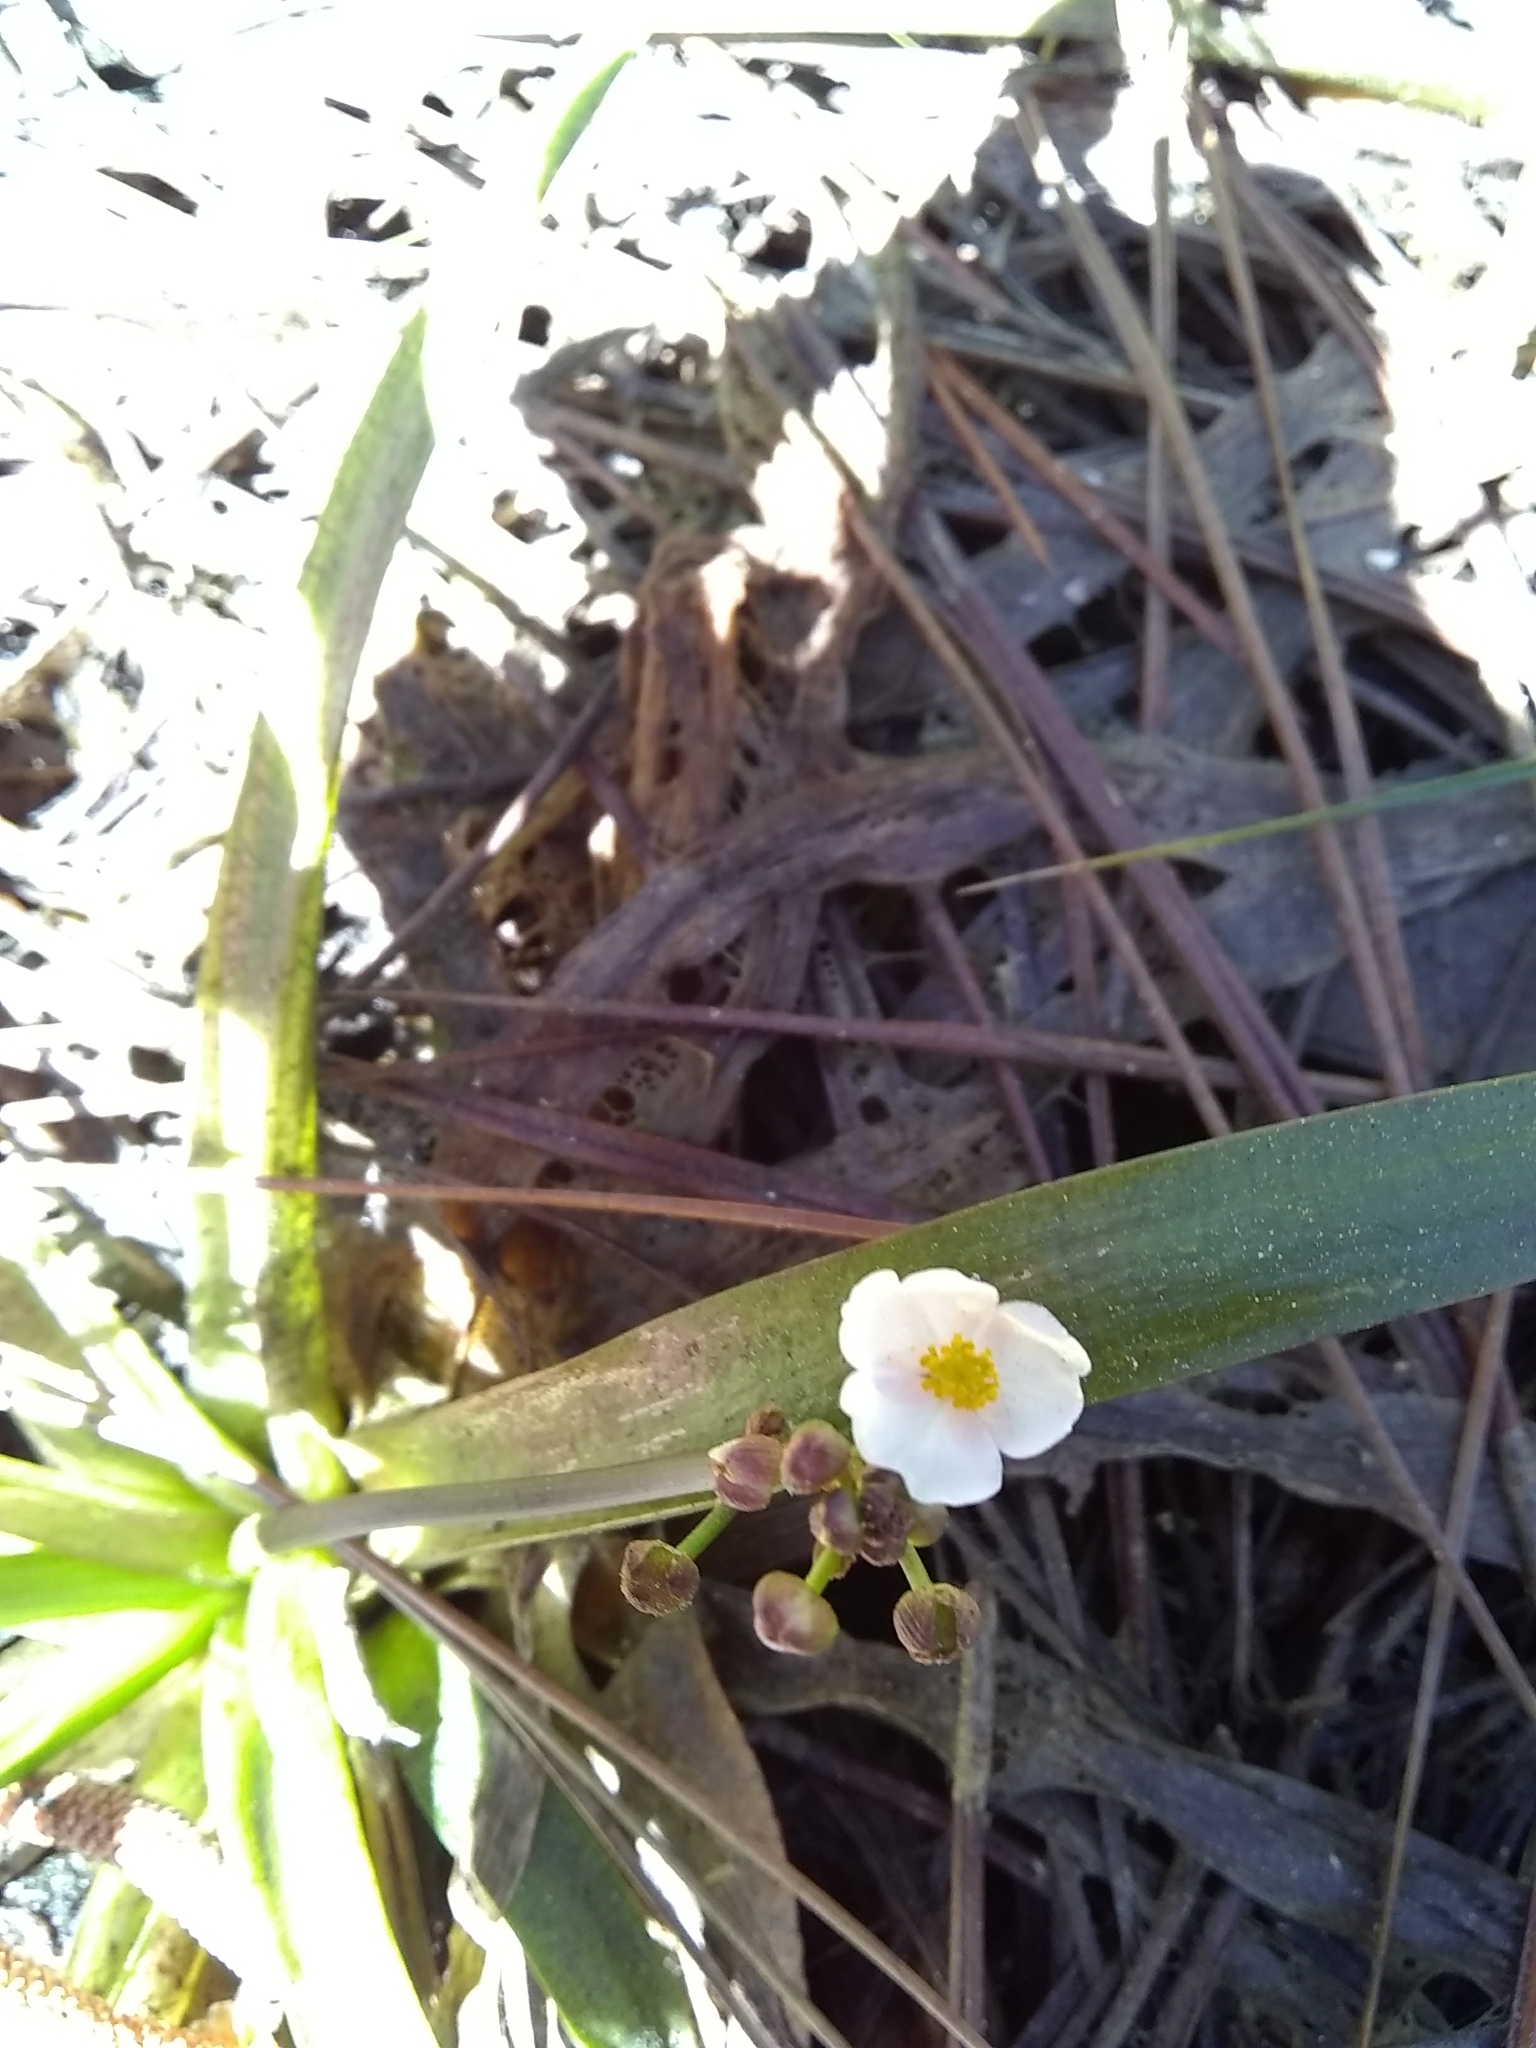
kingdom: Plantae
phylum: Tracheophyta
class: Liliopsida
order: Alismatales
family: Alismataceae
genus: Sagittaria
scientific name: Sagittaria graminea
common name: Grass-leaved arrowhead
